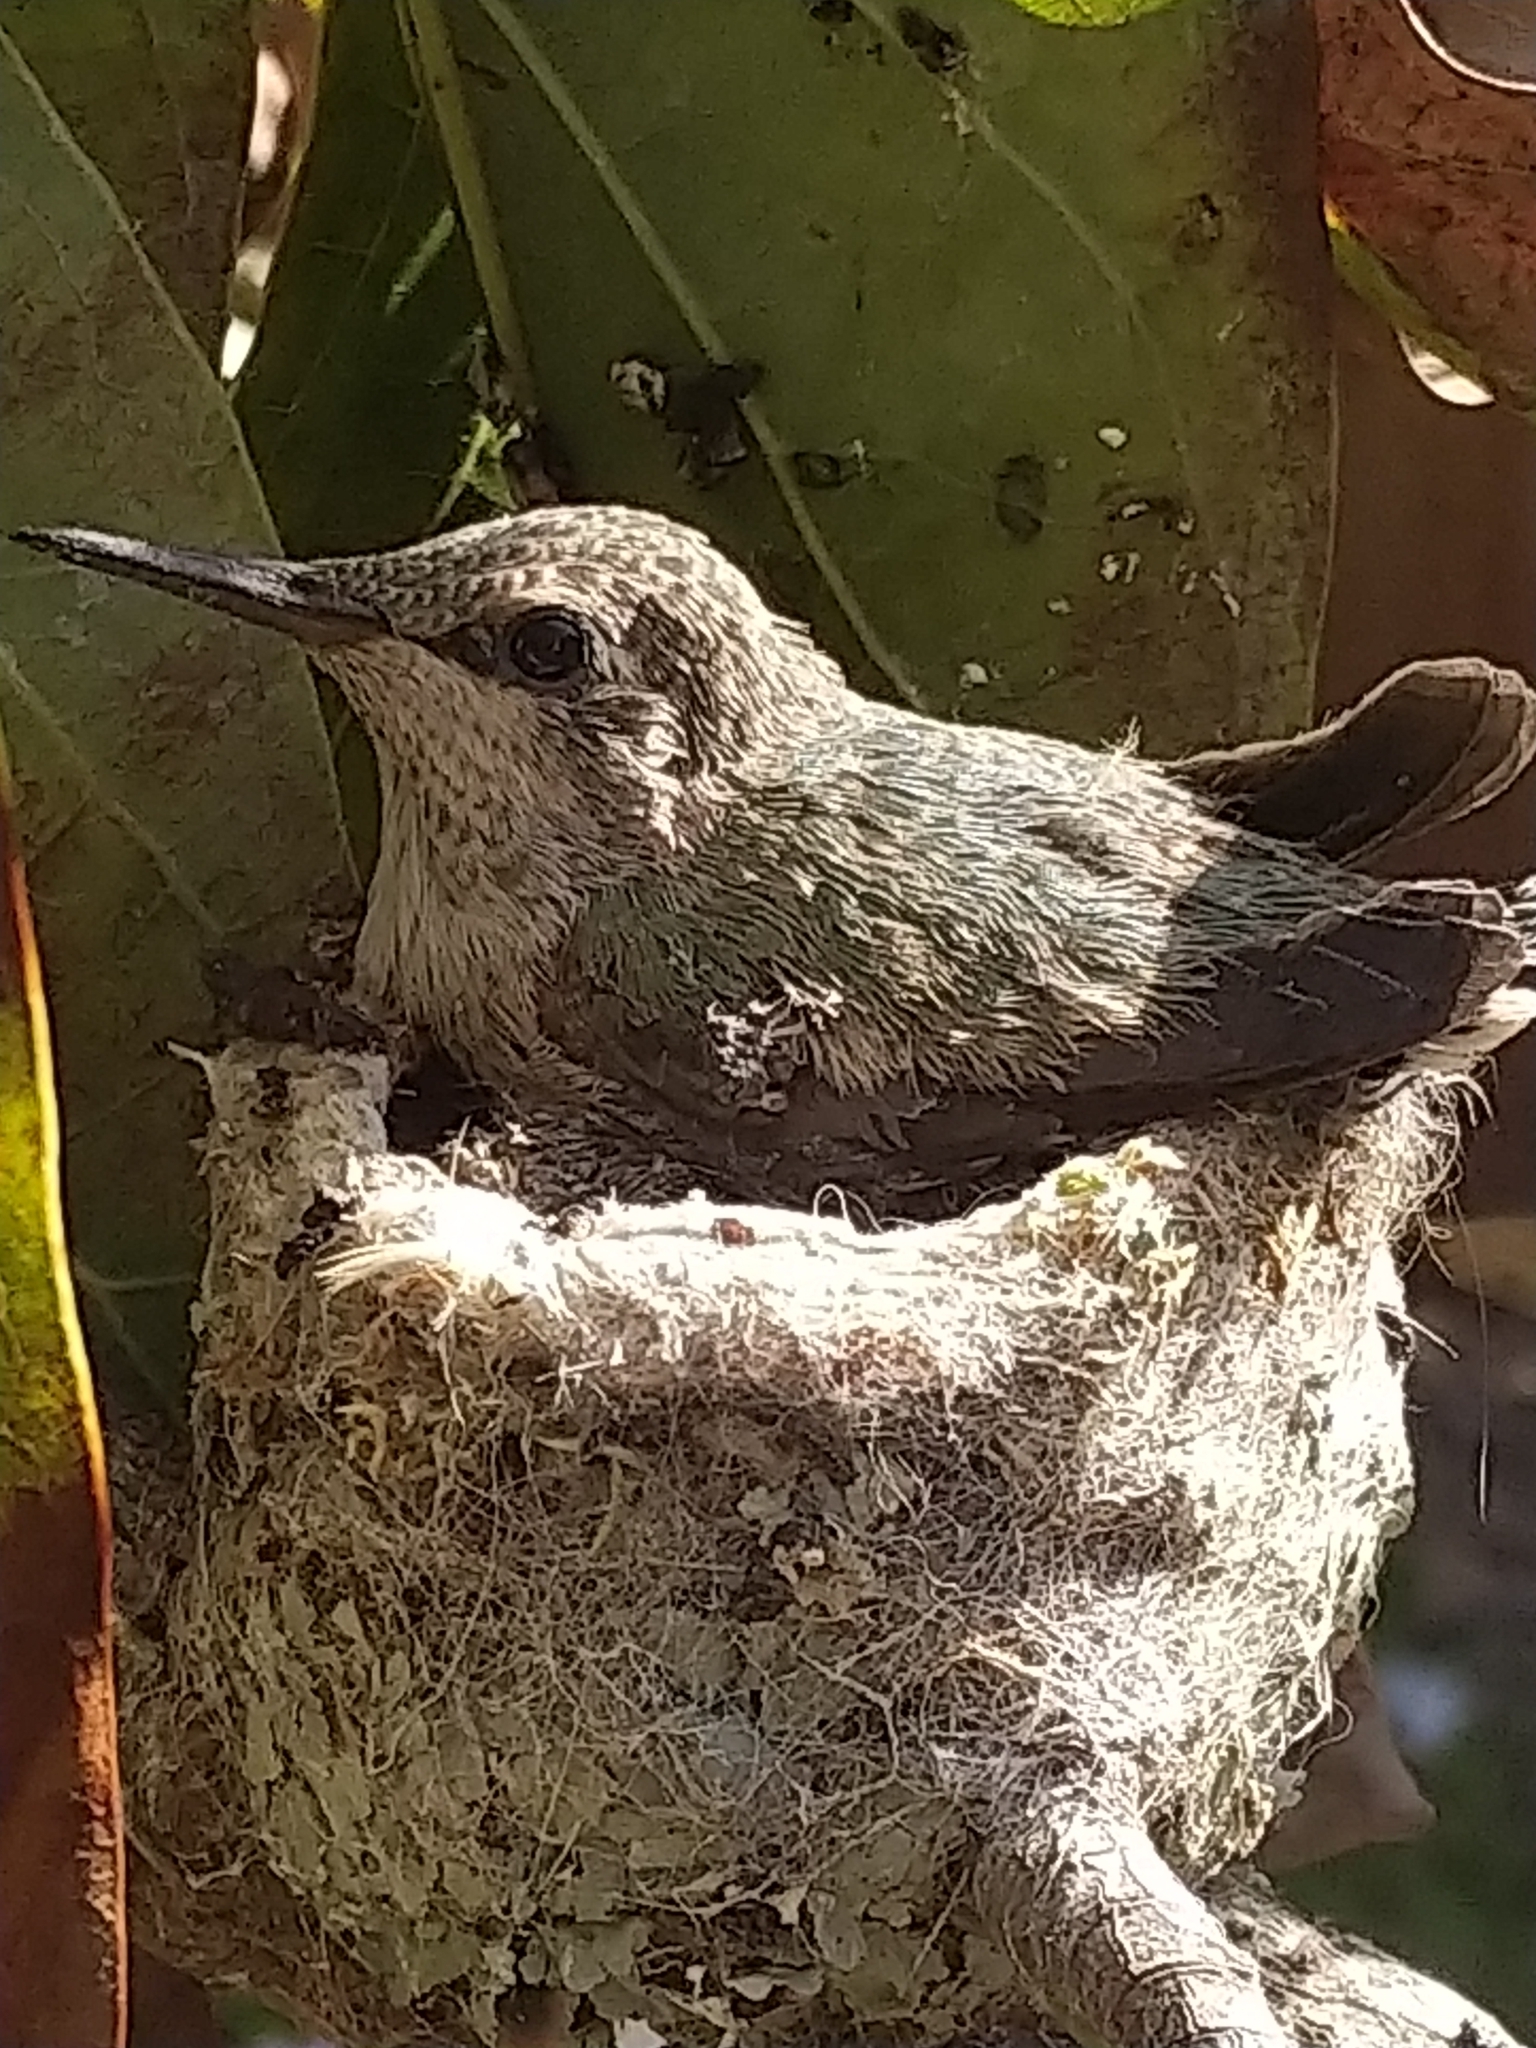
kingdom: Animalia
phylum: Chordata
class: Aves
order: Apodiformes
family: Trochilidae
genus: Calypte
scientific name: Calypte anna
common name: Anna's hummingbird
